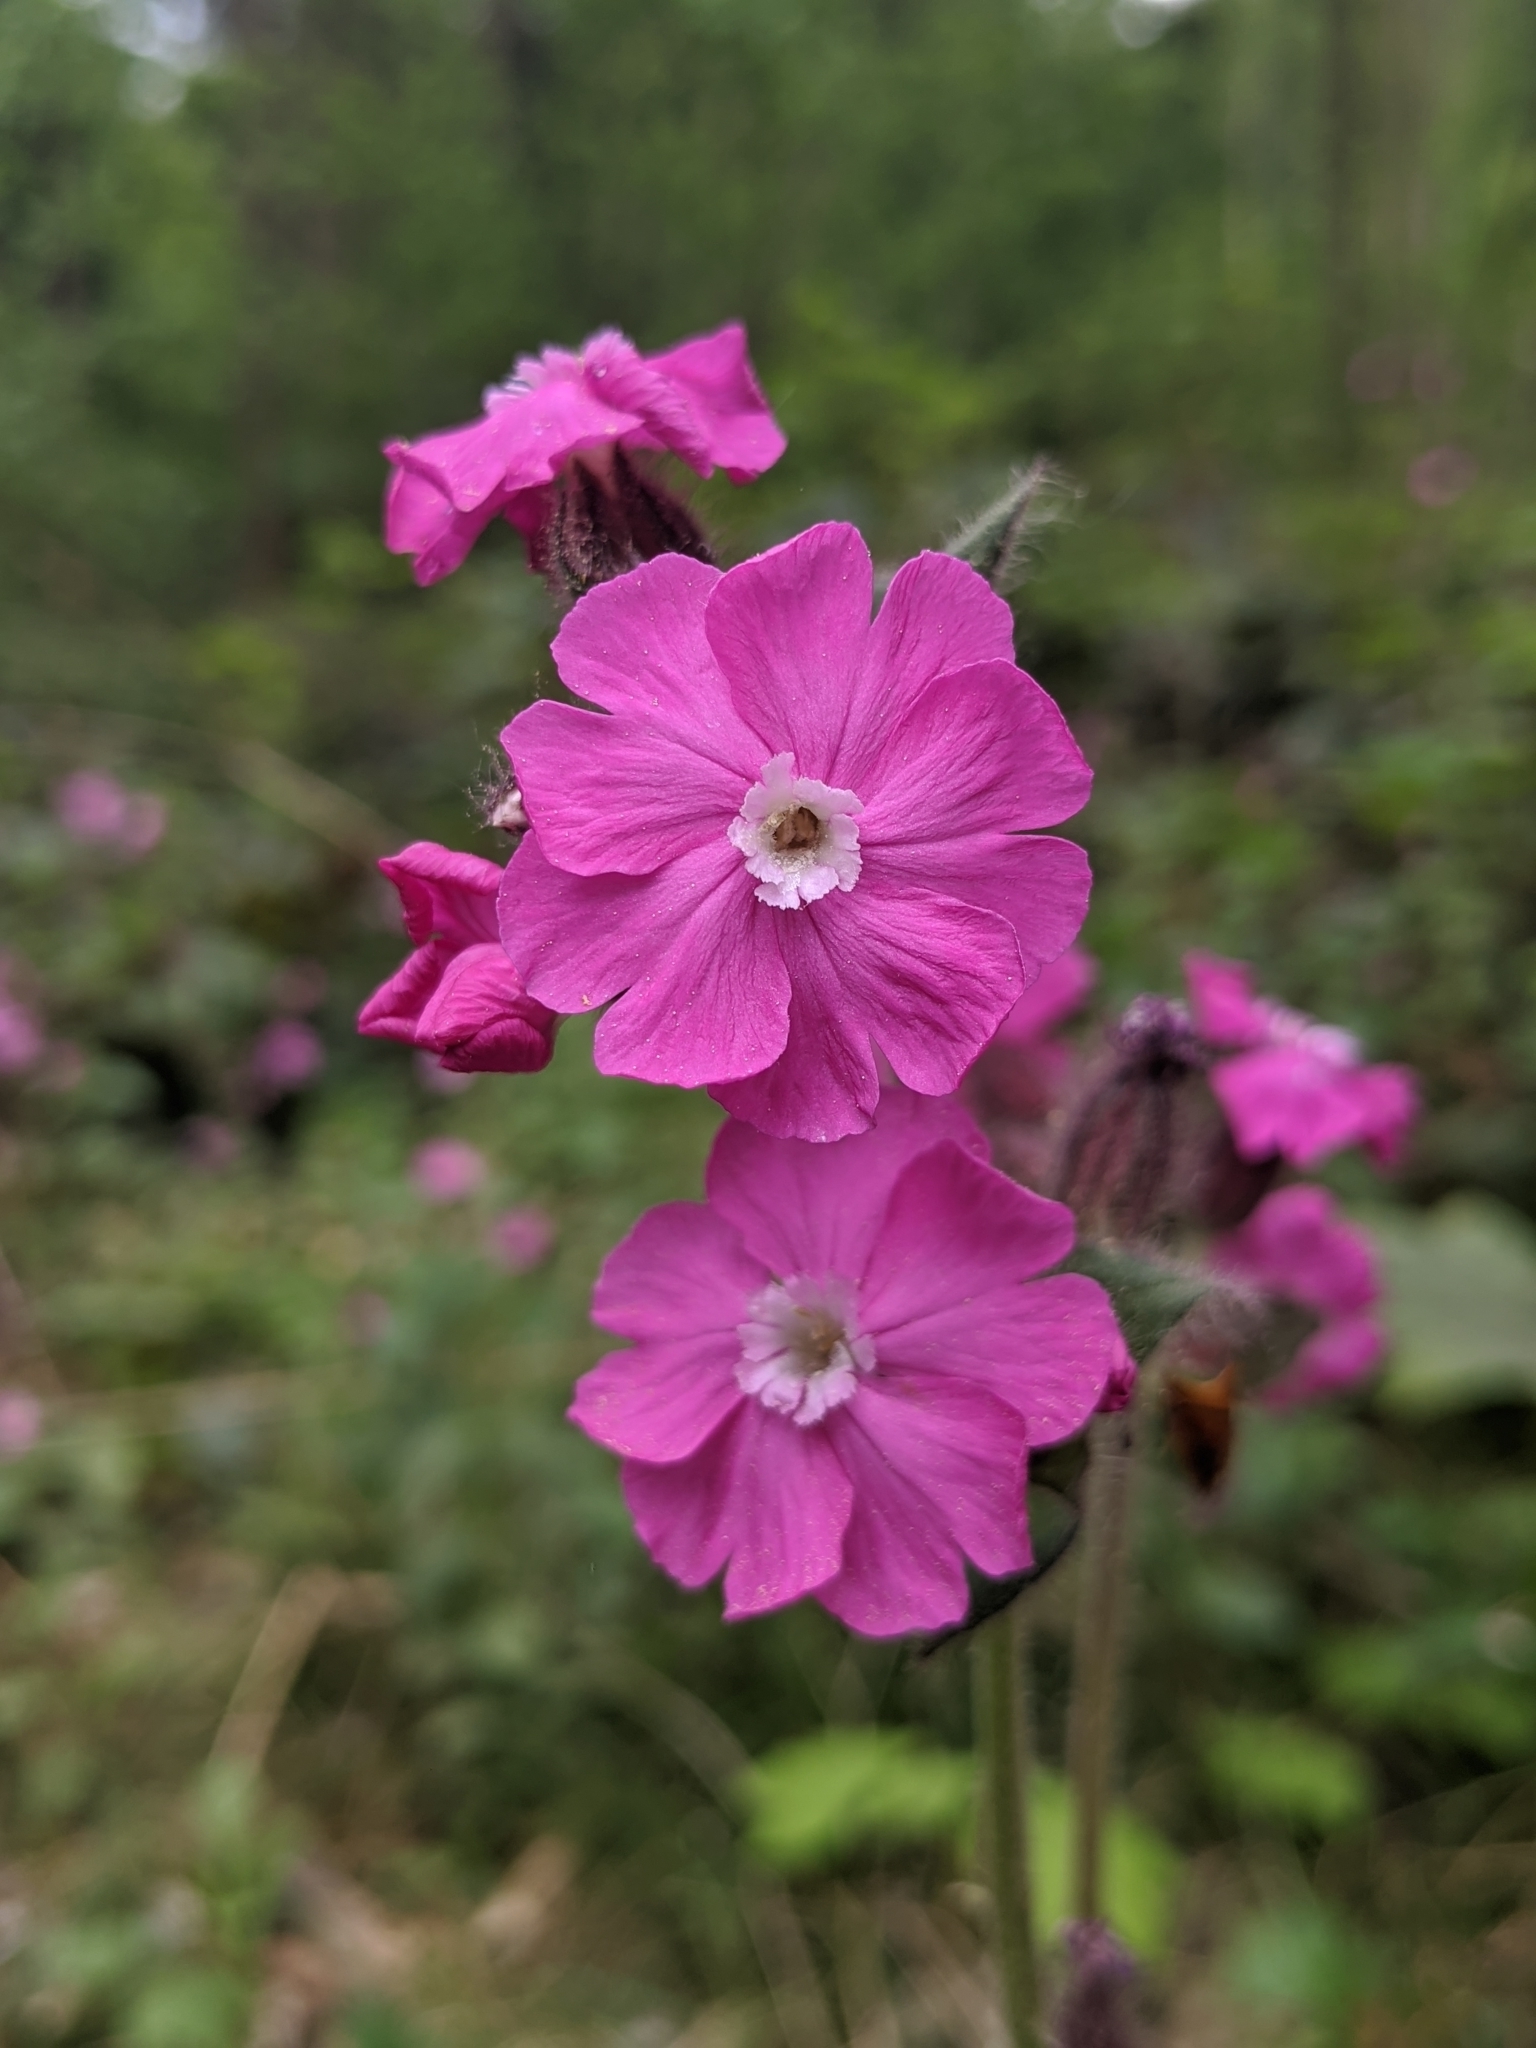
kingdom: Plantae
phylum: Tracheophyta
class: Magnoliopsida
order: Caryophyllales
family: Caryophyllaceae
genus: Silene
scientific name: Silene dioica
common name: Red campion
